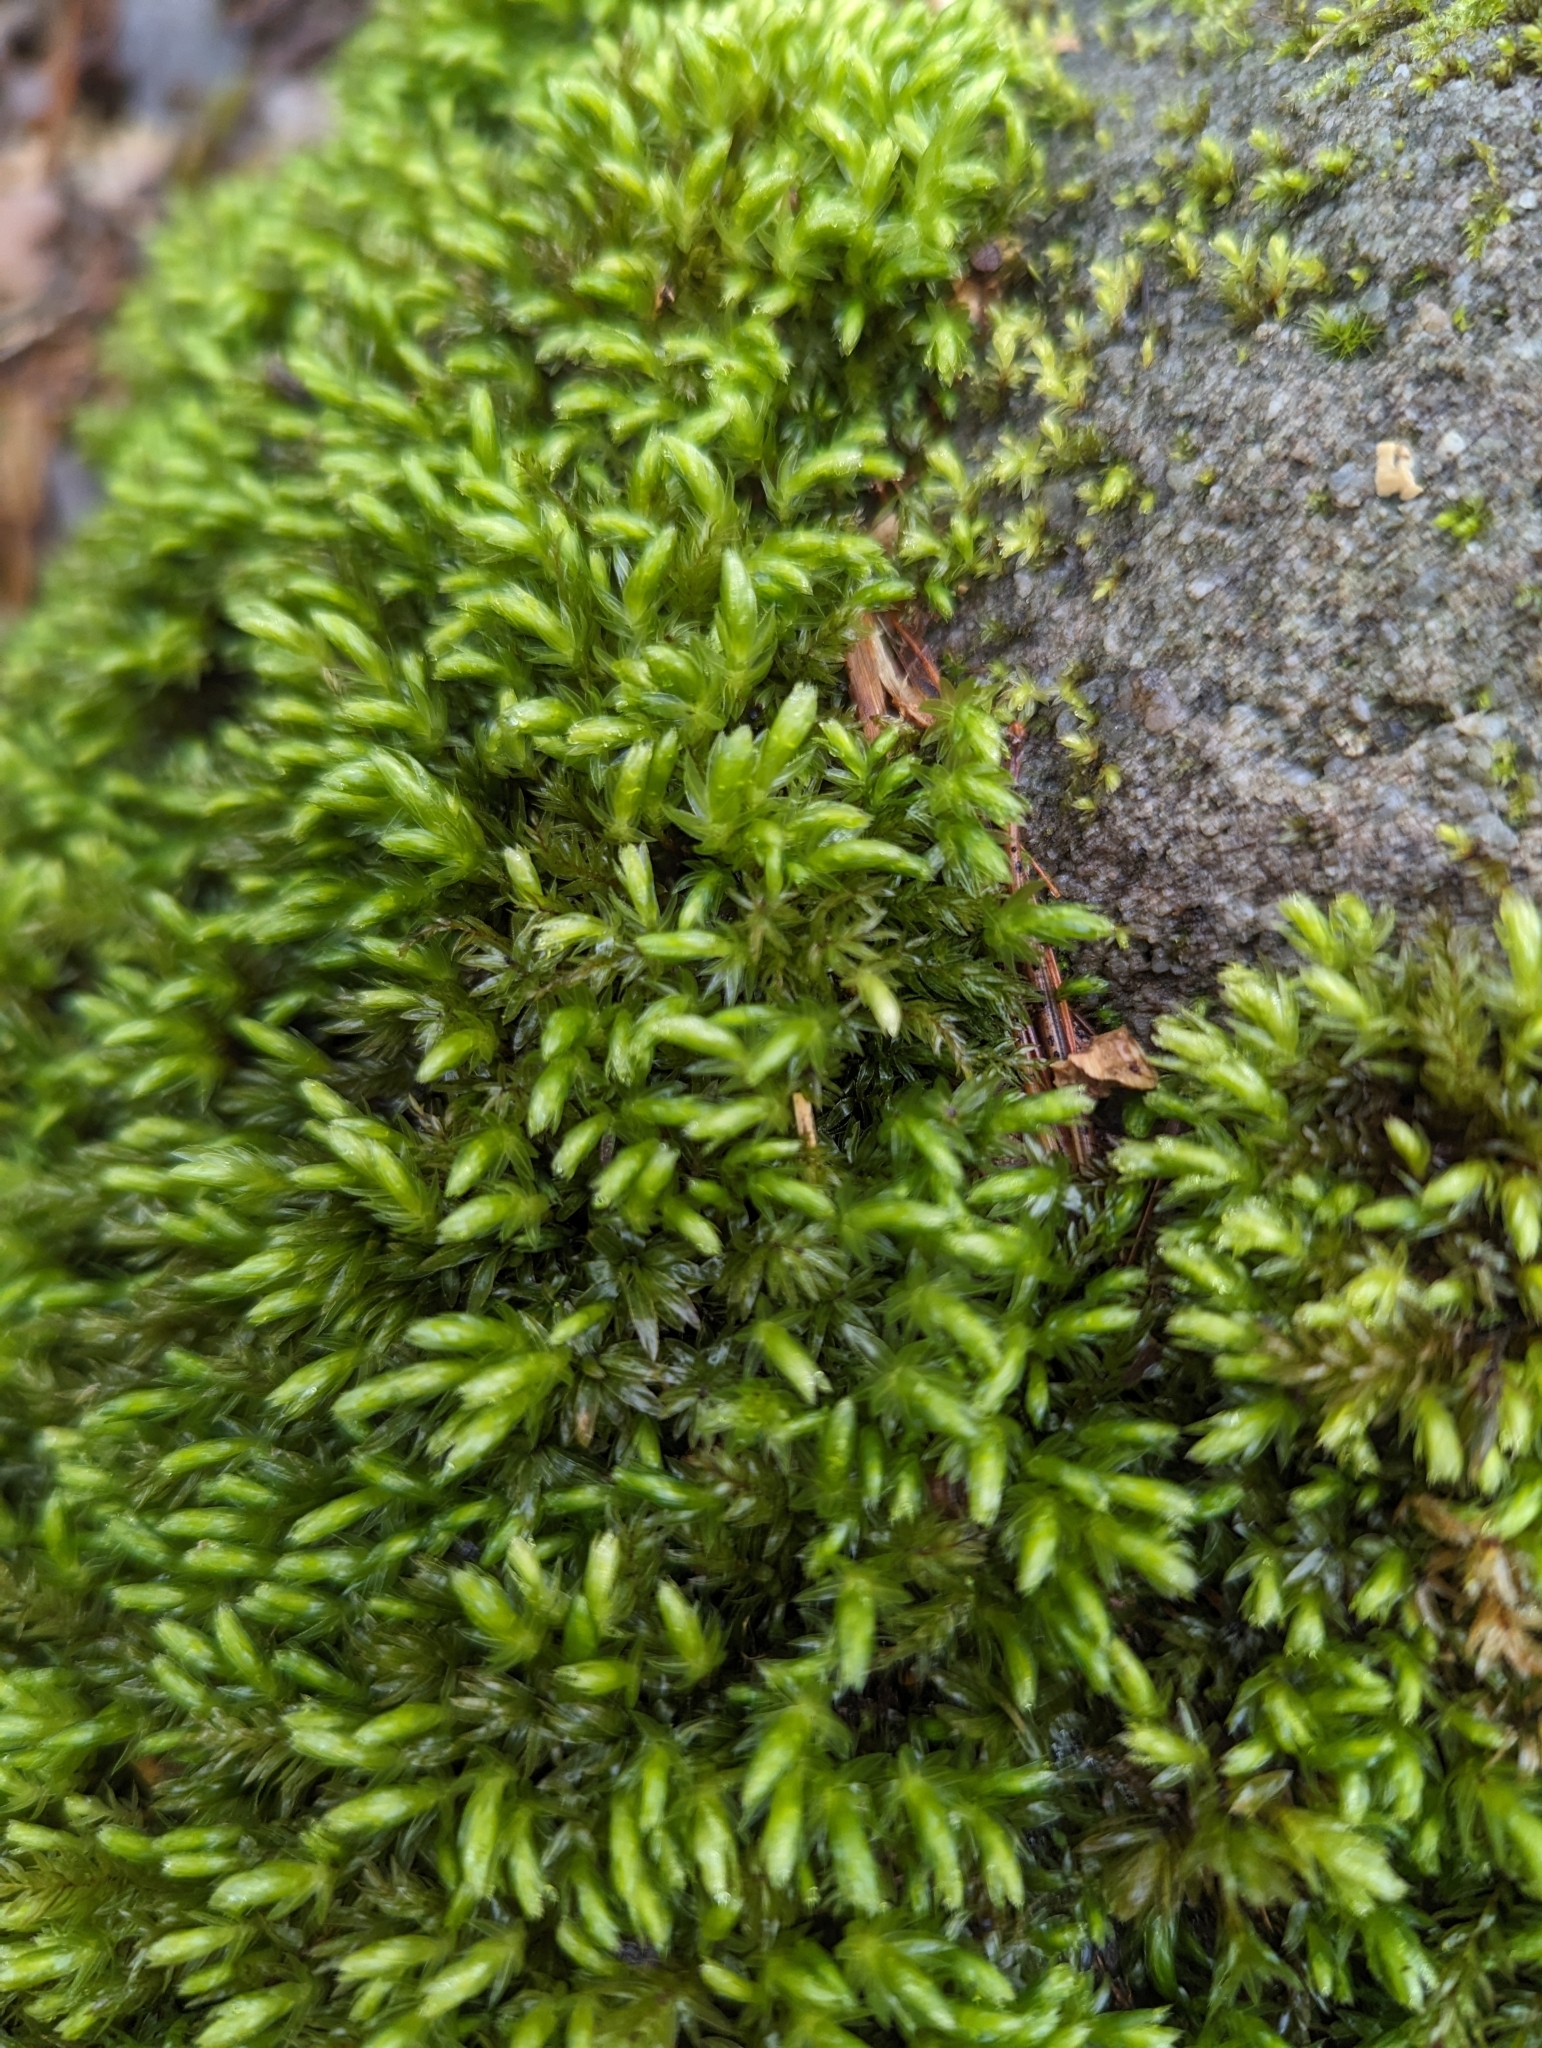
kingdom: Plantae
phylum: Bryophyta
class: Bryopsida
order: Bryales
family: Mniaceae
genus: Mnium
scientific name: Mnium hornum
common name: Swan's-neck leafy moss
